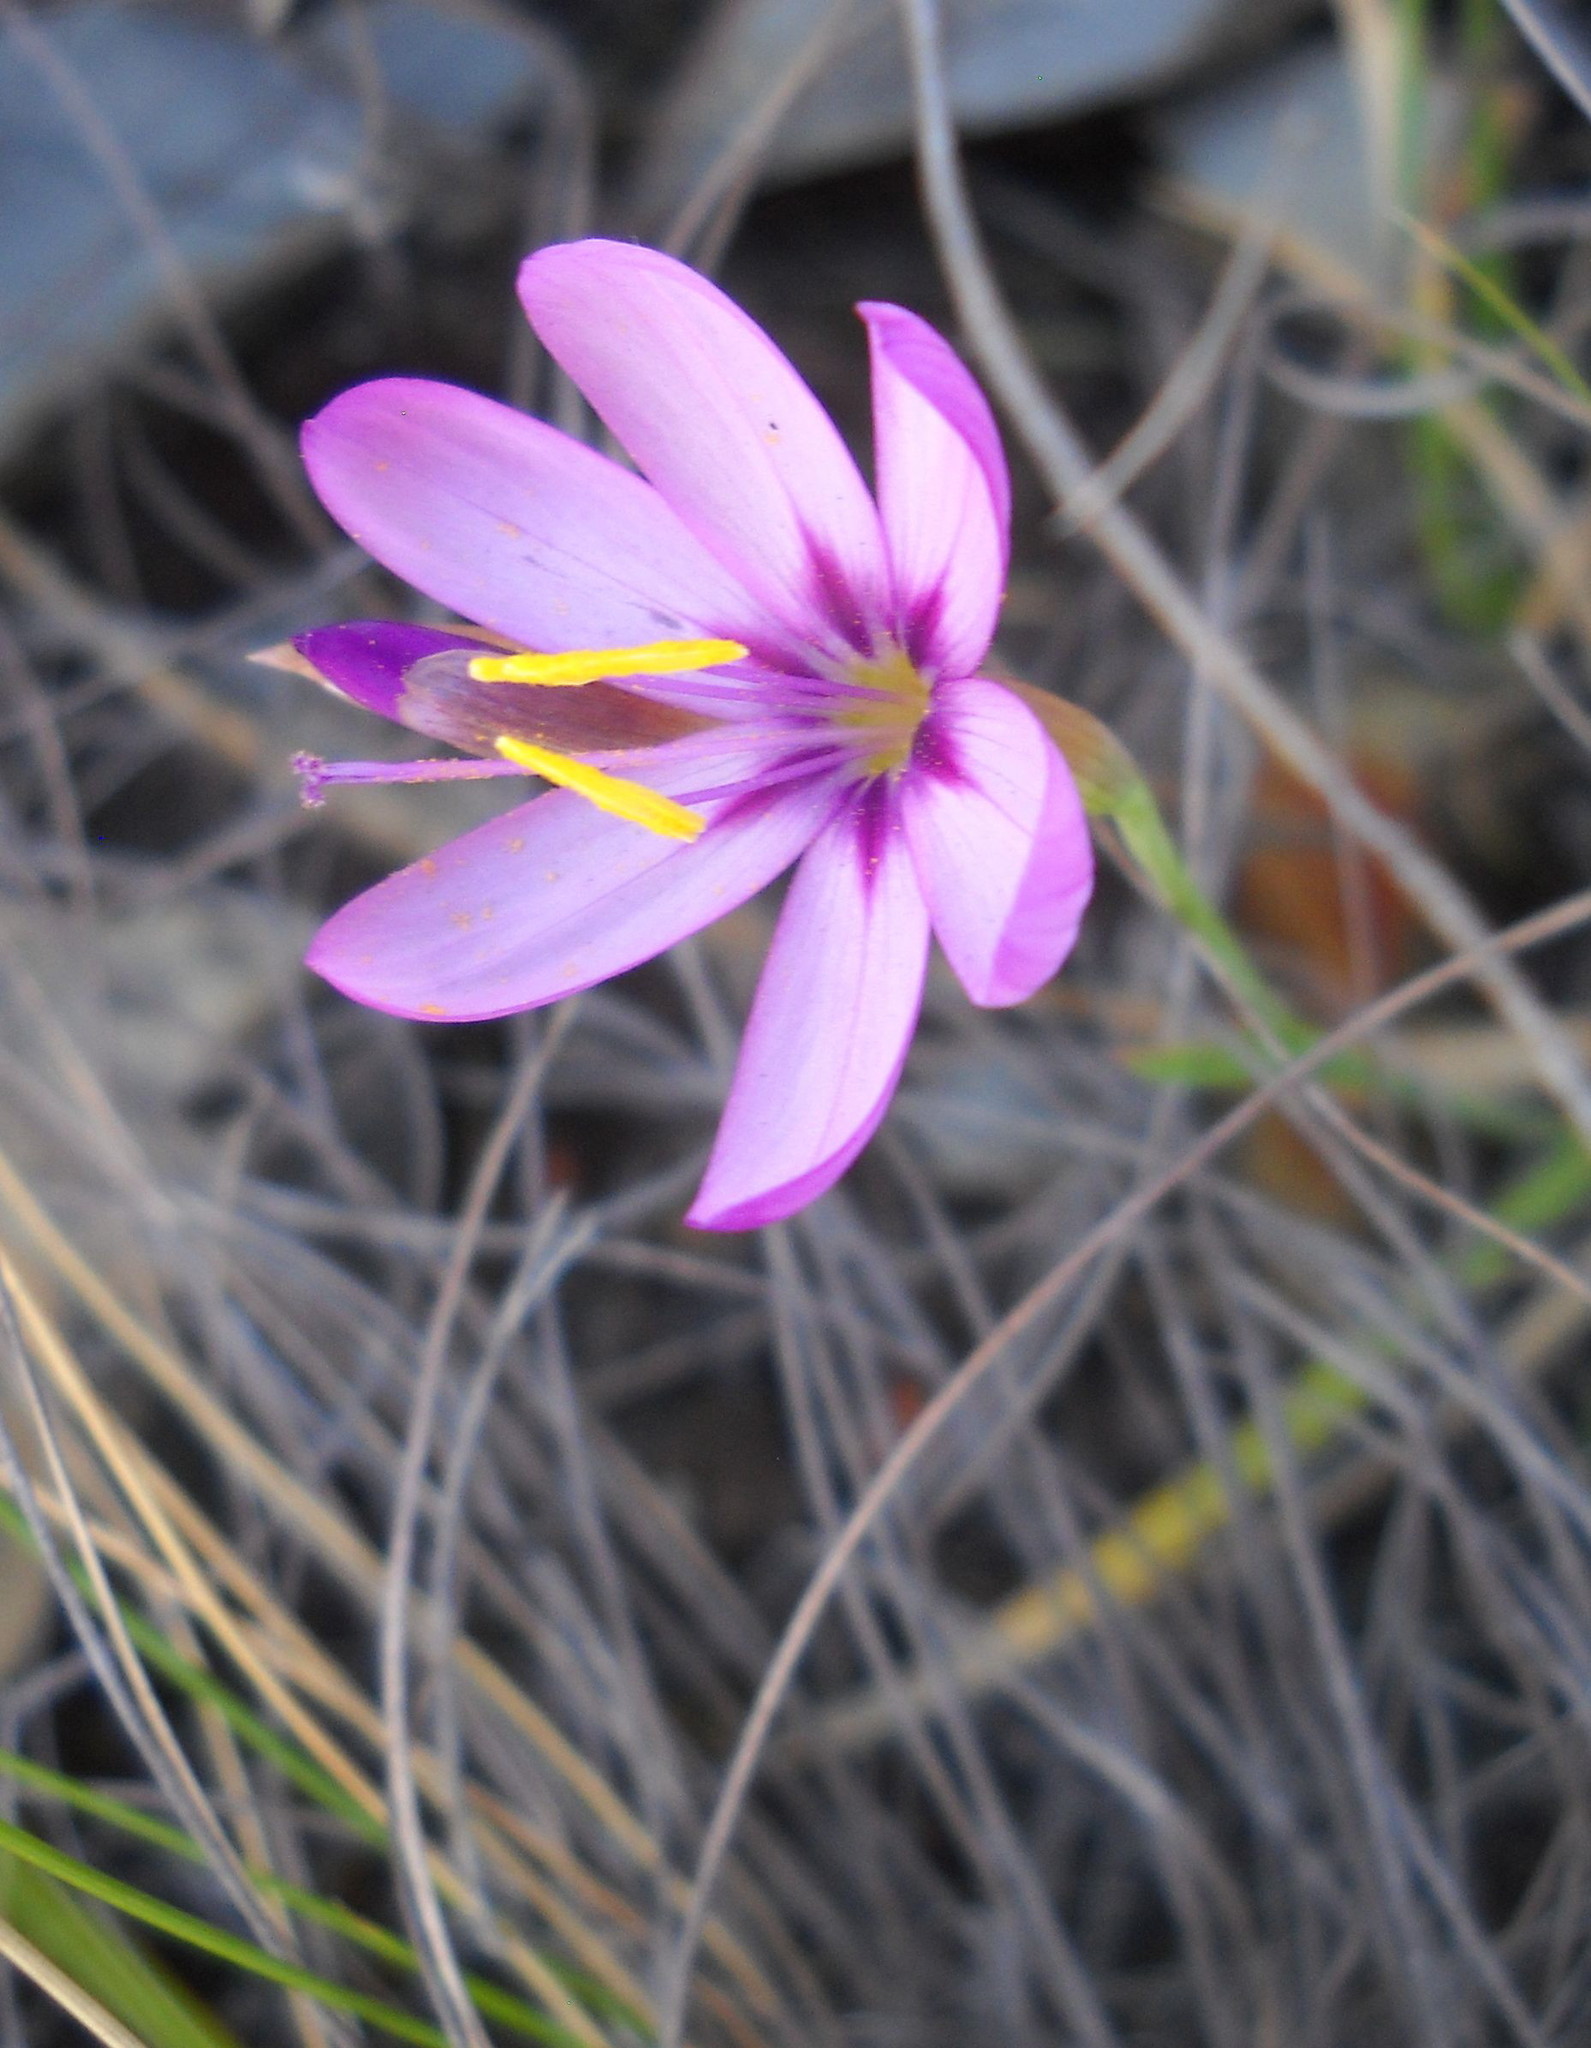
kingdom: Plantae
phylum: Tracheophyta
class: Liliopsida
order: Asparagales
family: Iridaceae
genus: Geissorhiza
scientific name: Geissorhiza elsiae
